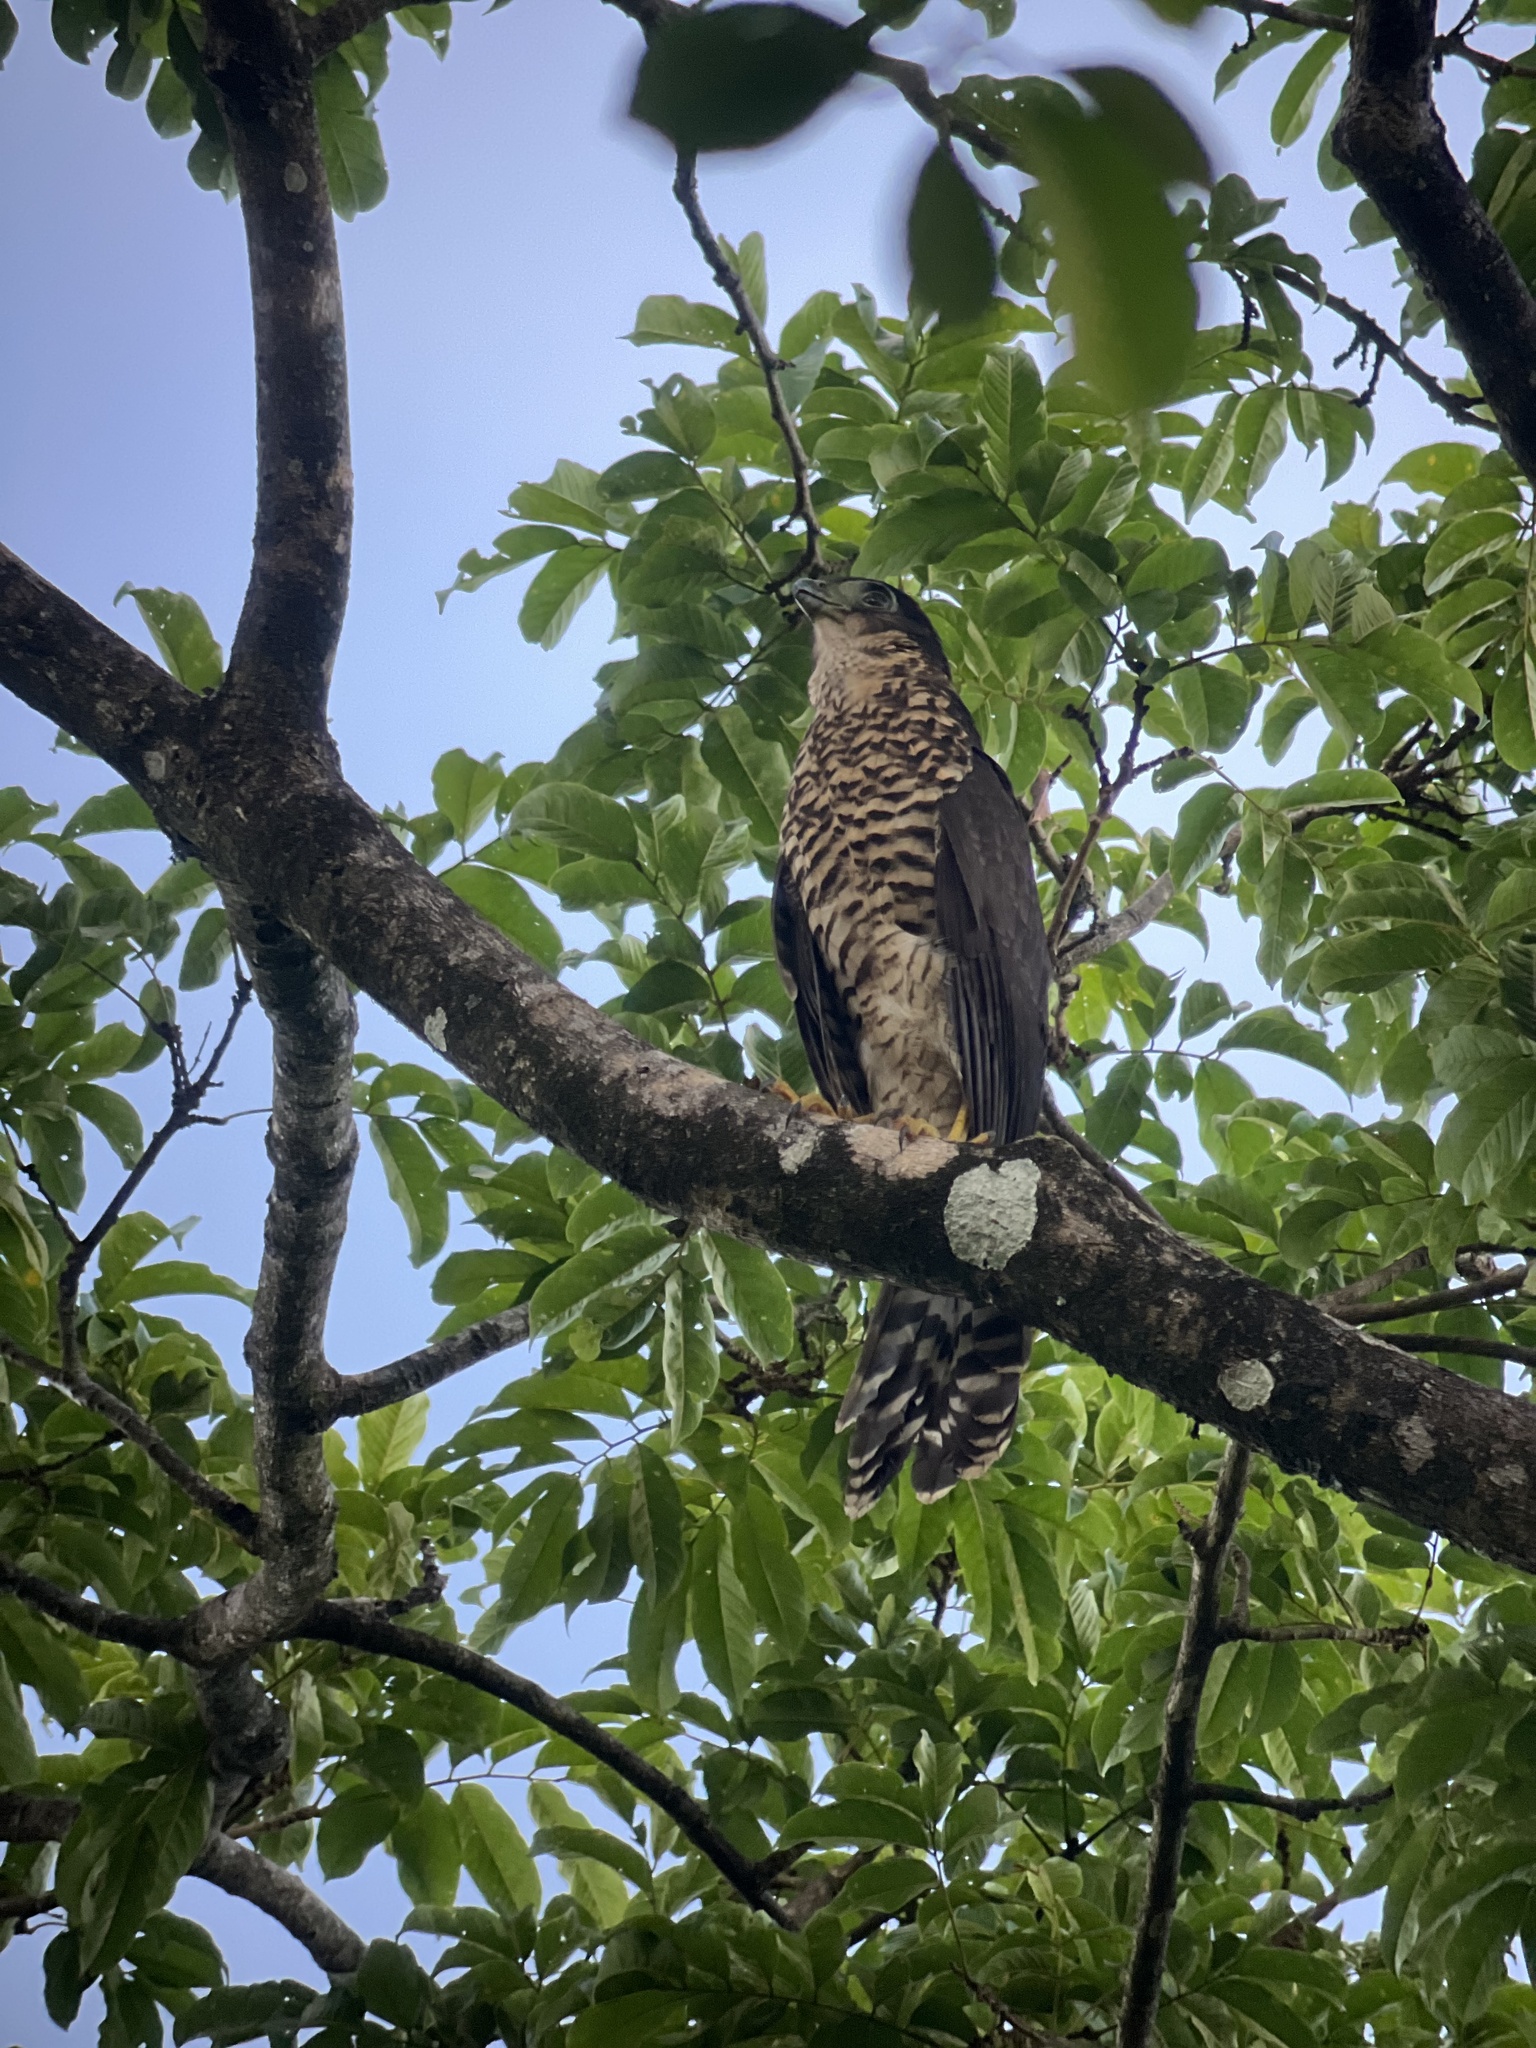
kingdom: Animalia
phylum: Chordata
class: Aves
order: Falconiformes
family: Falconidae
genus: Micrastur
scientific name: Micrastur semitorquatus
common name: Collared forest-falcon
